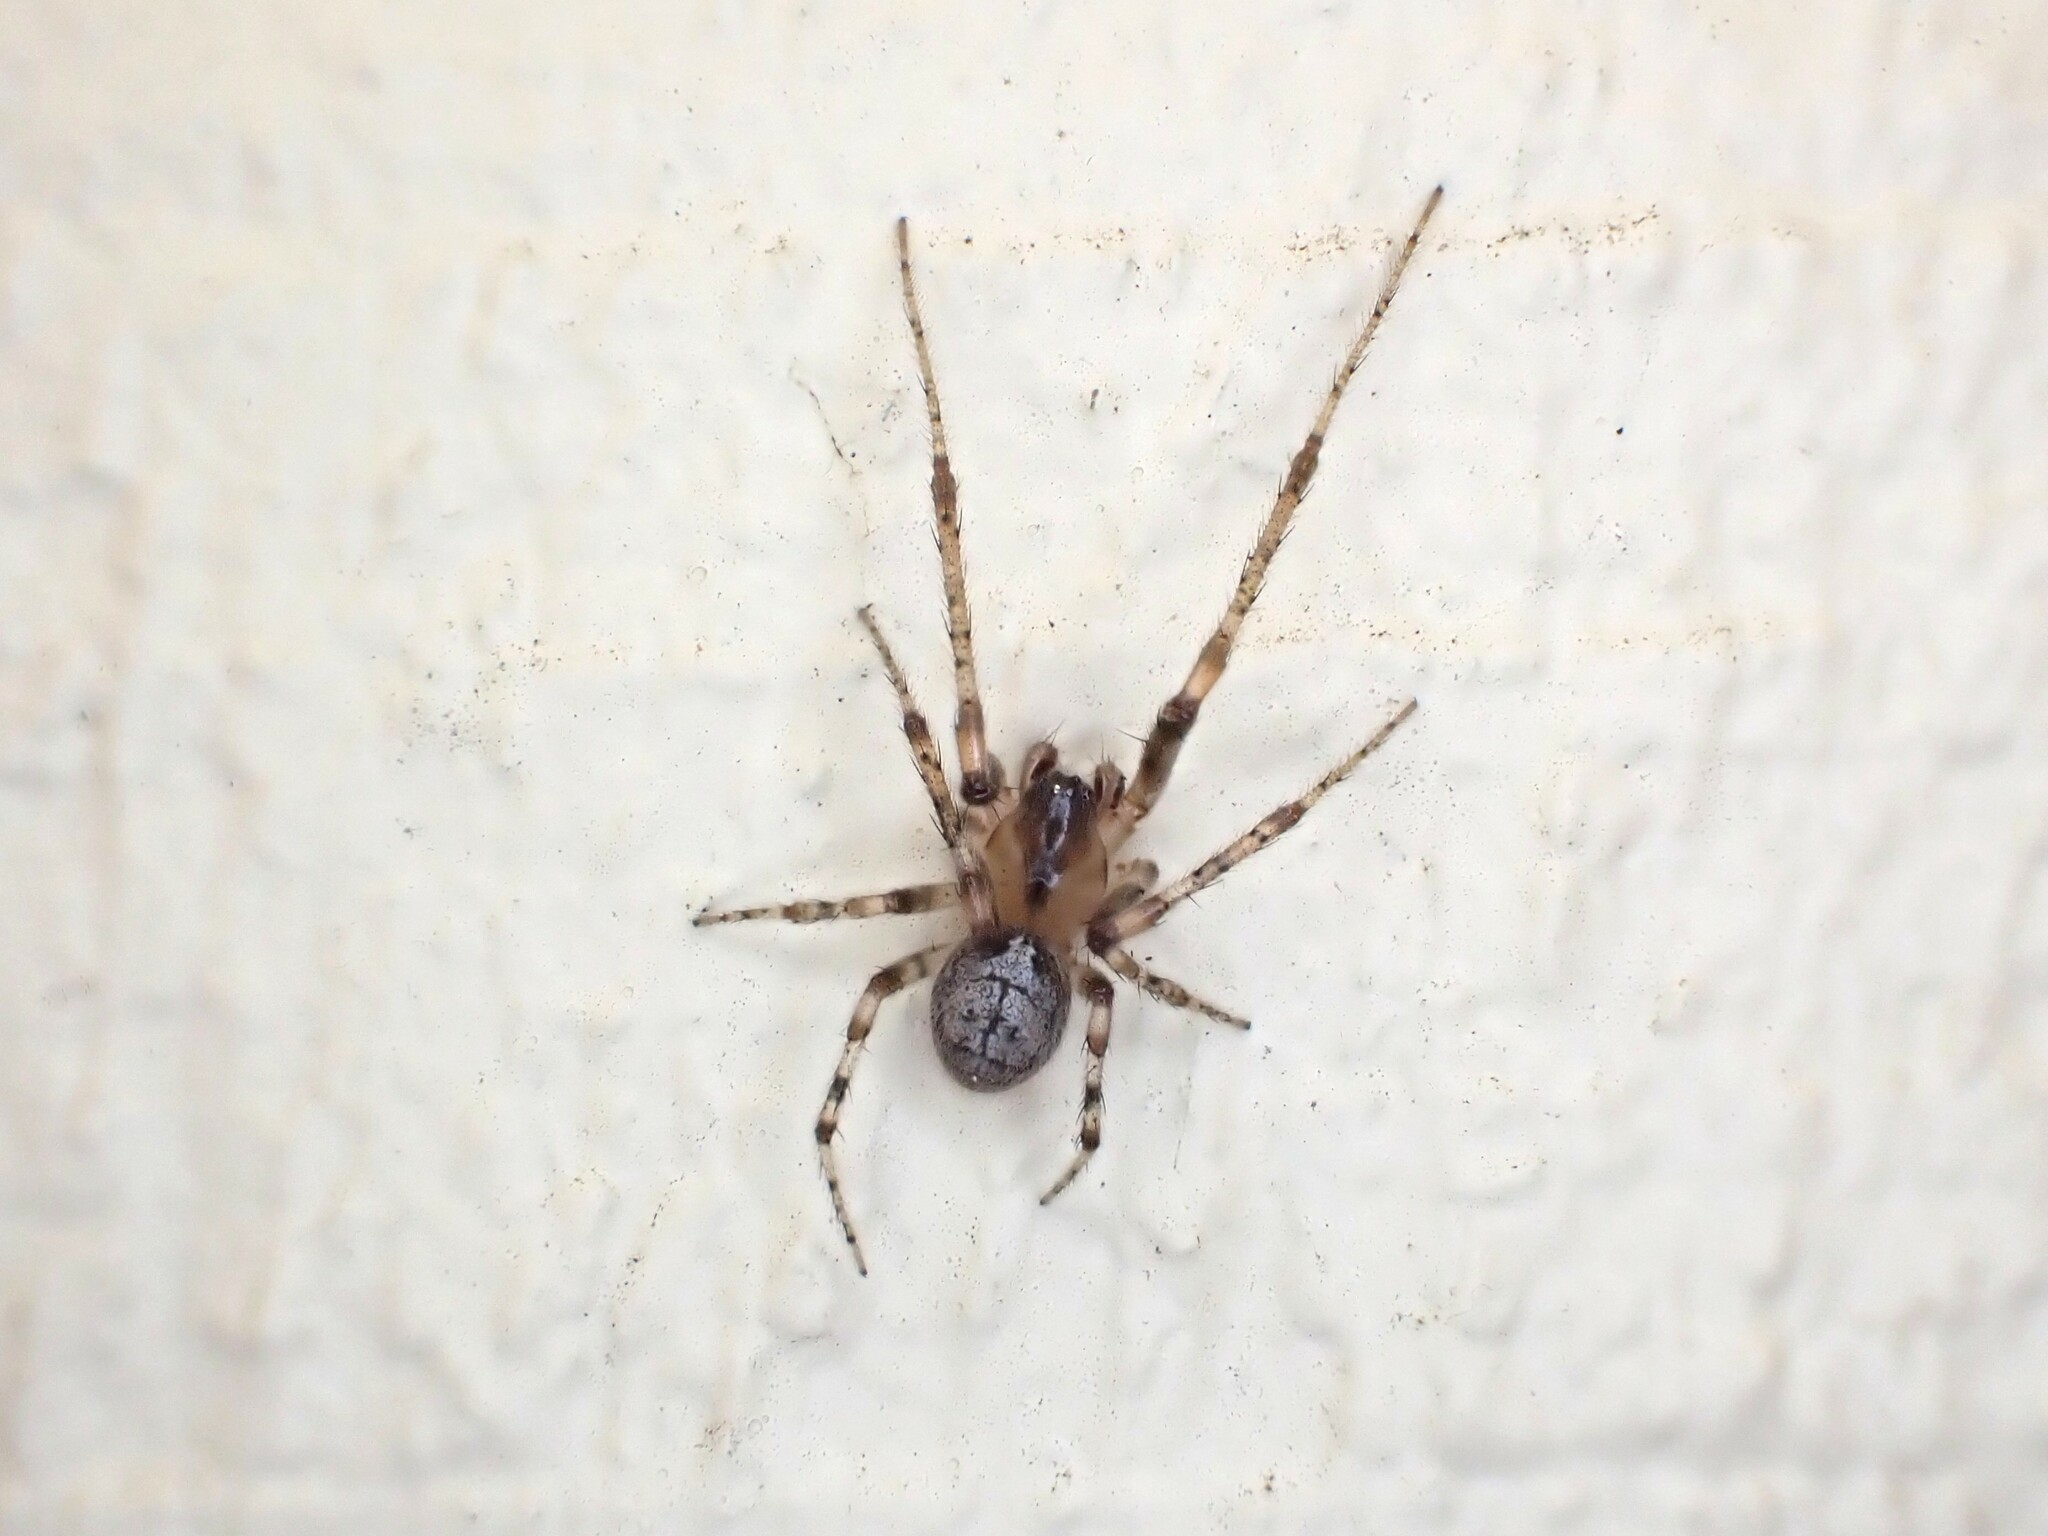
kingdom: Animalia
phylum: Arthropoda
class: Arachnida
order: Araneae
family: Araneidae
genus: Zygiella
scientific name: Zygiella x-notata
